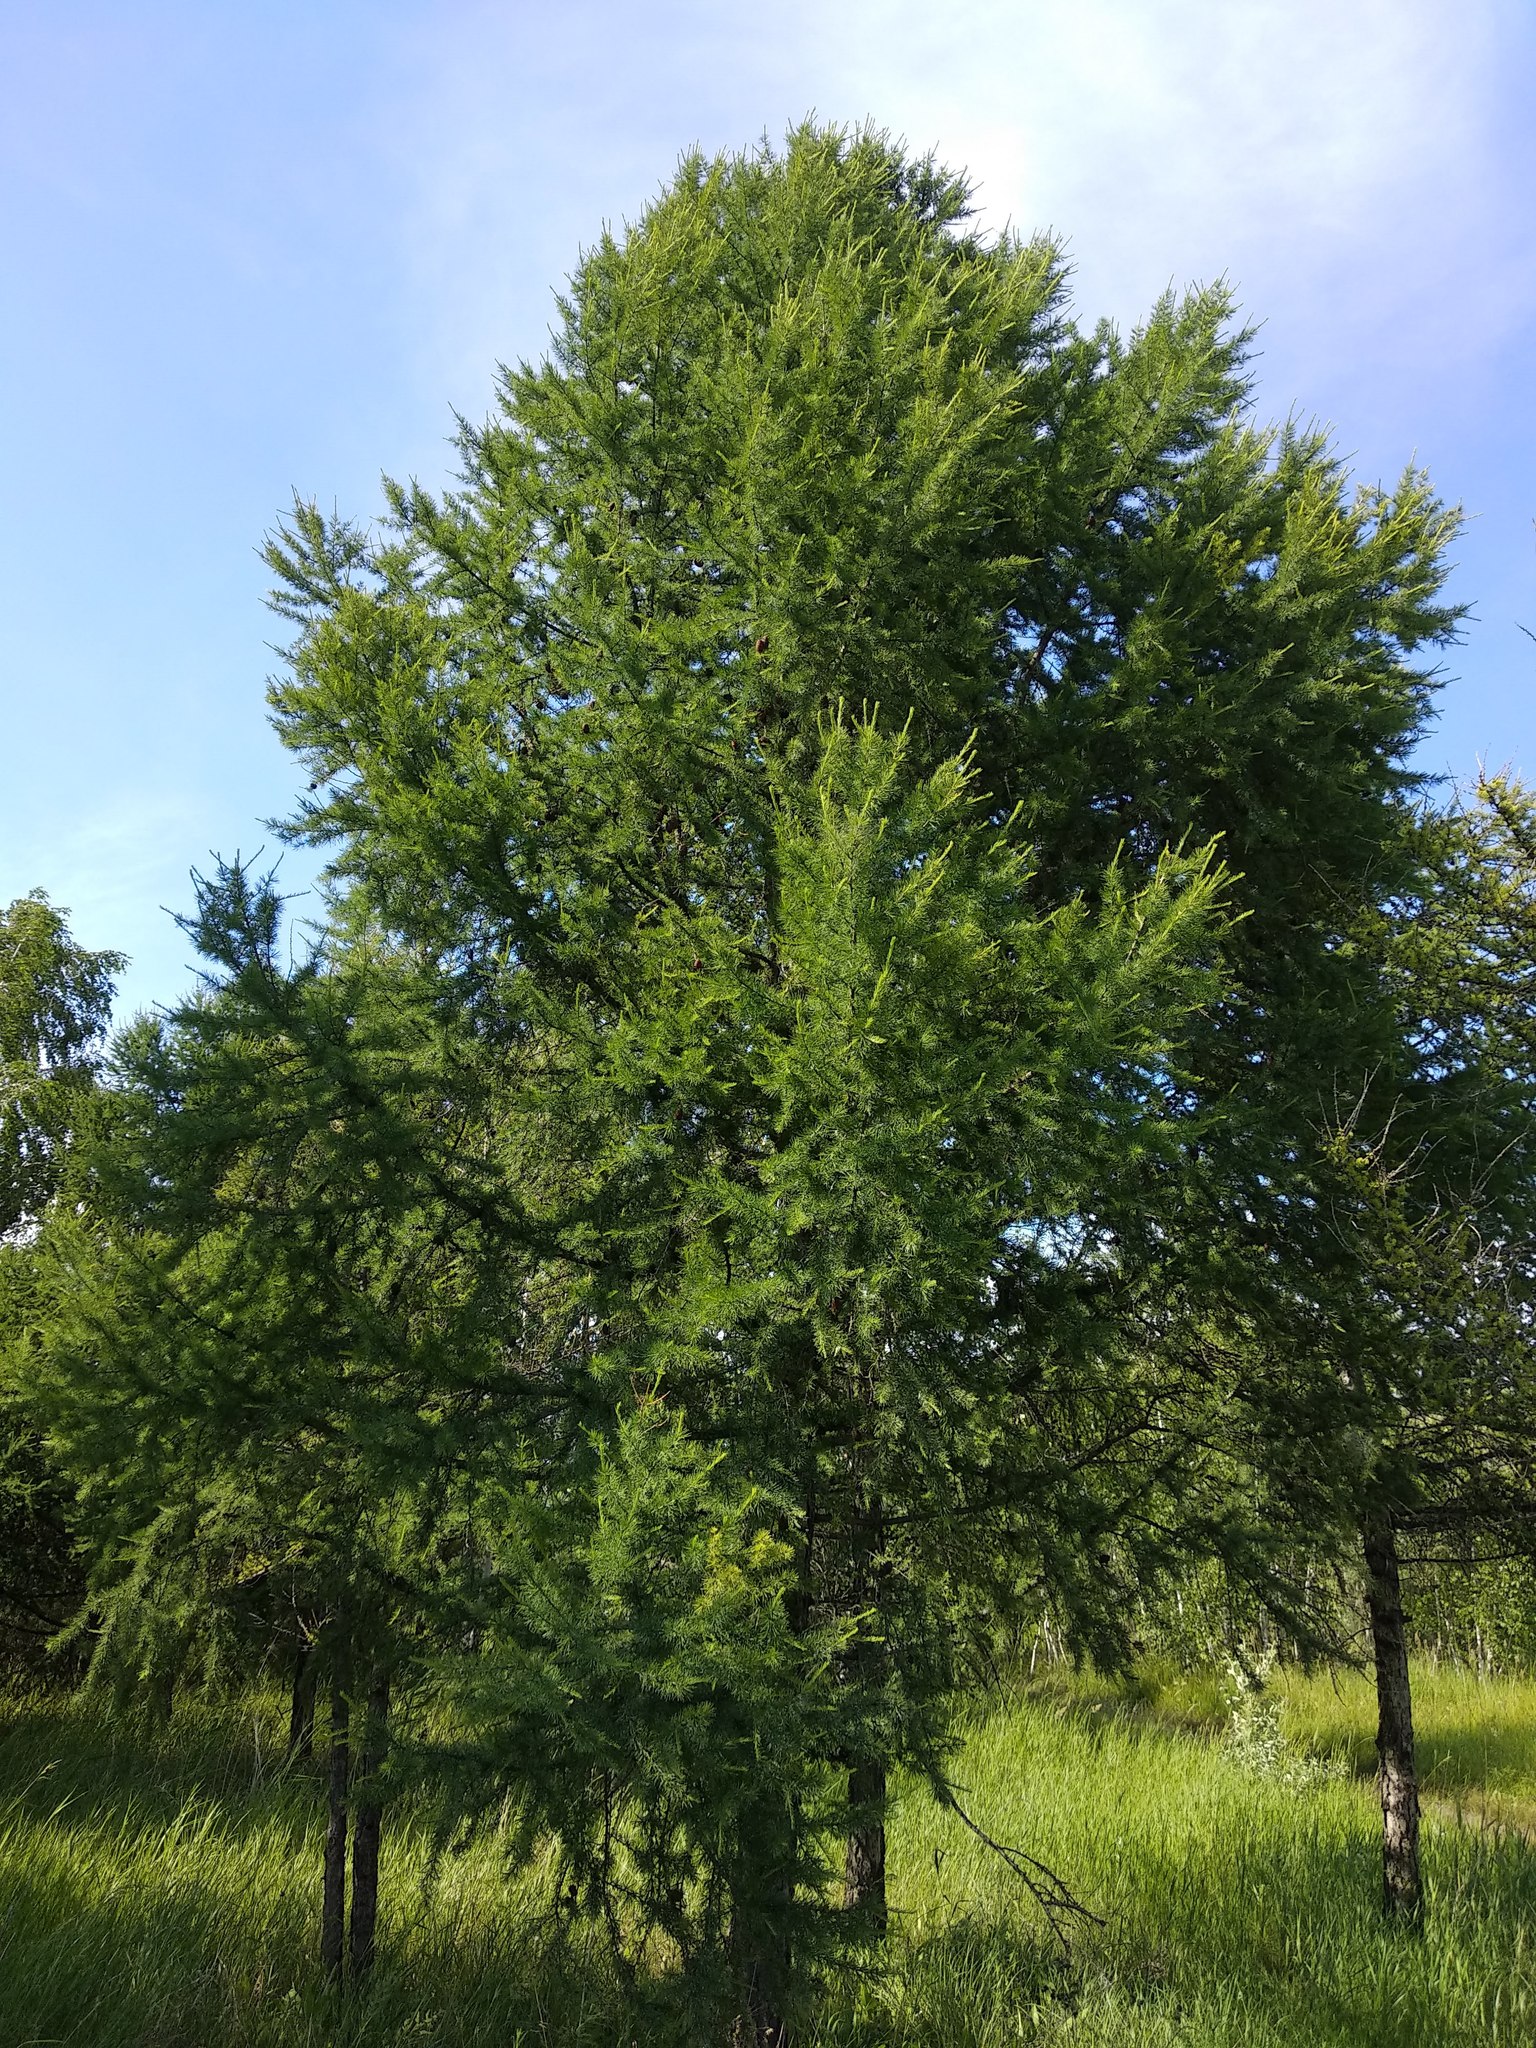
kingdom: Plantae
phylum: Tracheophyta
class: Pinopsida
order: Pinales
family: Pinaceae
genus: Larix
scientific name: Larix sibirica
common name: Siberian larch
